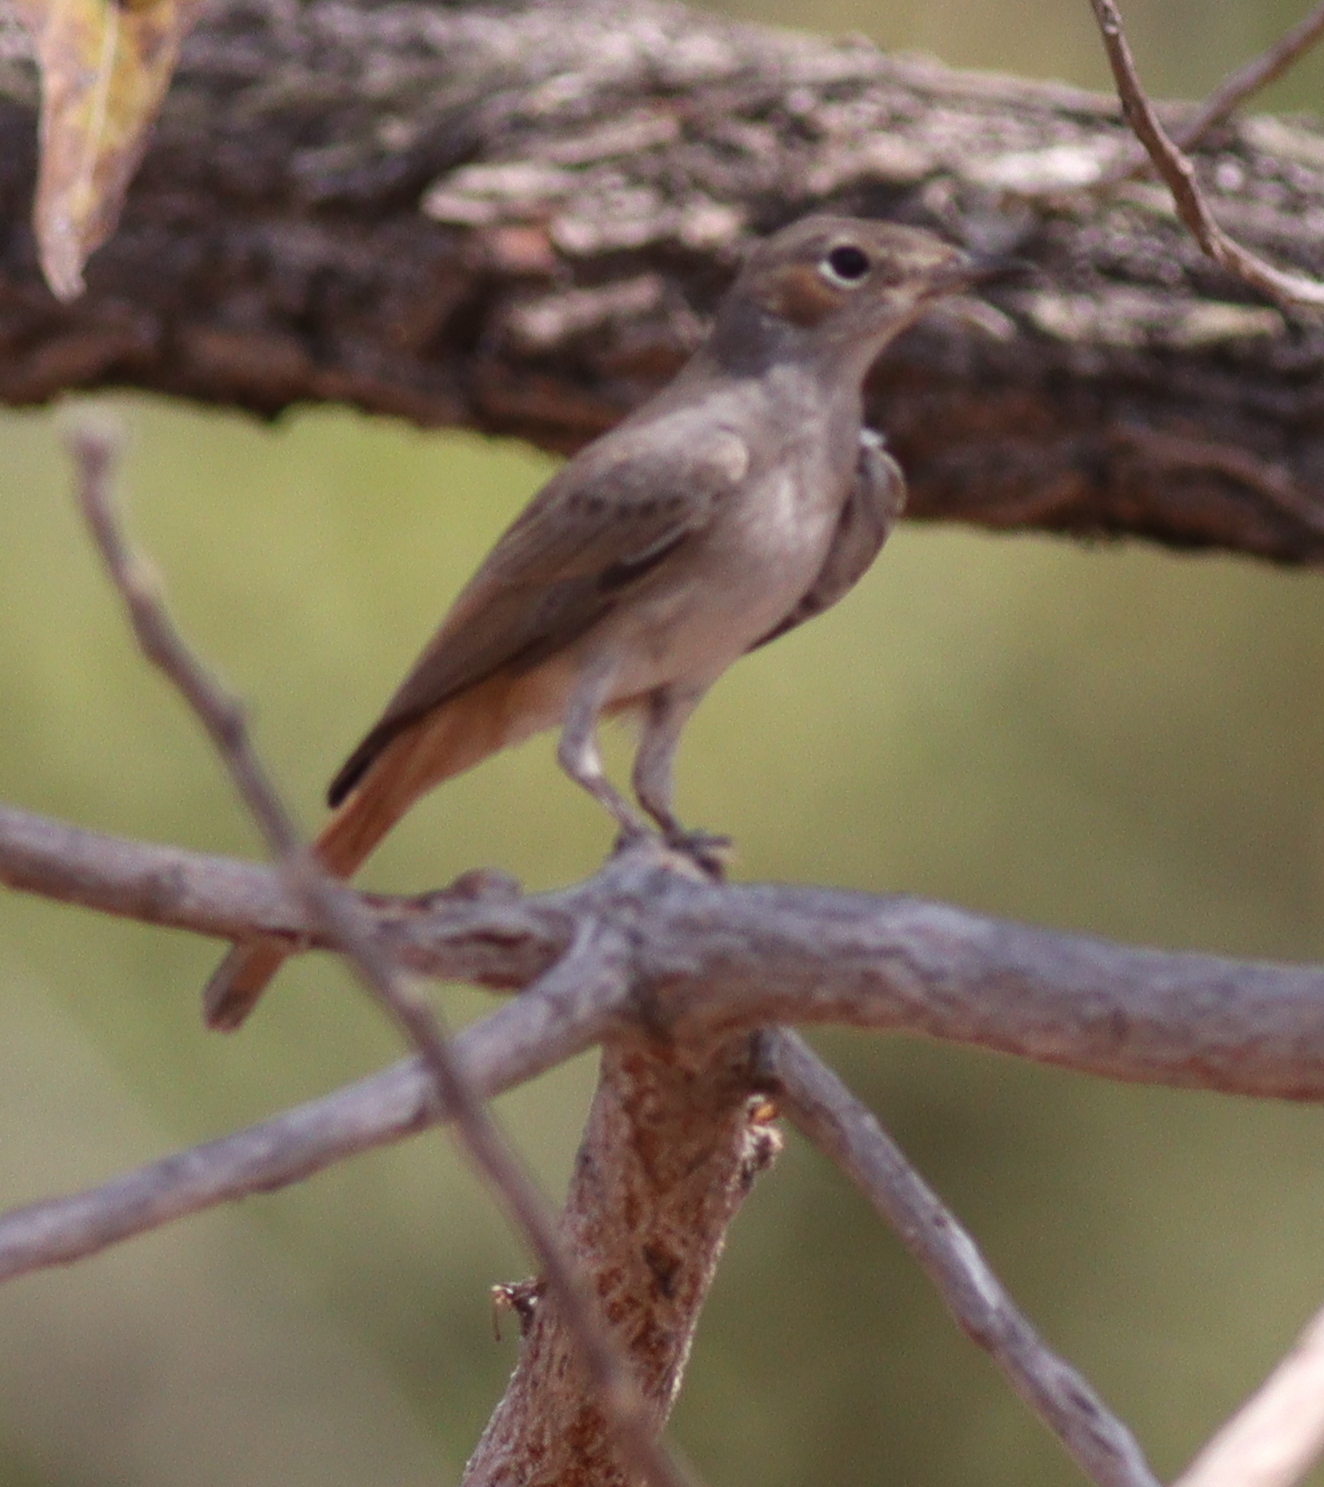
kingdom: Animalia
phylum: Chordata
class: Aves
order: Passeriformes
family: Muscicapidae
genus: Oenanthe
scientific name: Oenanthe familiaris
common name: Familiar chat
